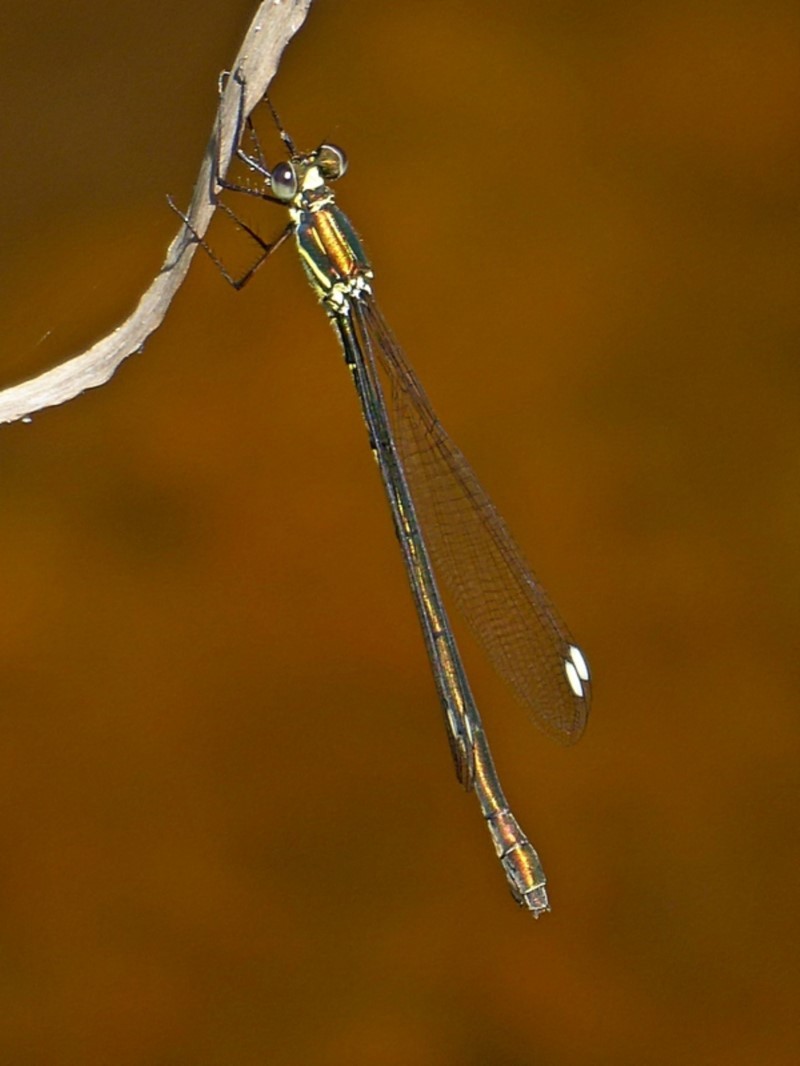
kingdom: Animalia
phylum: Arthropoda
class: Insecta
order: Odonata
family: Synlestidae
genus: Synlestes
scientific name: Synlestes weyersii
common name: Bronze needle
